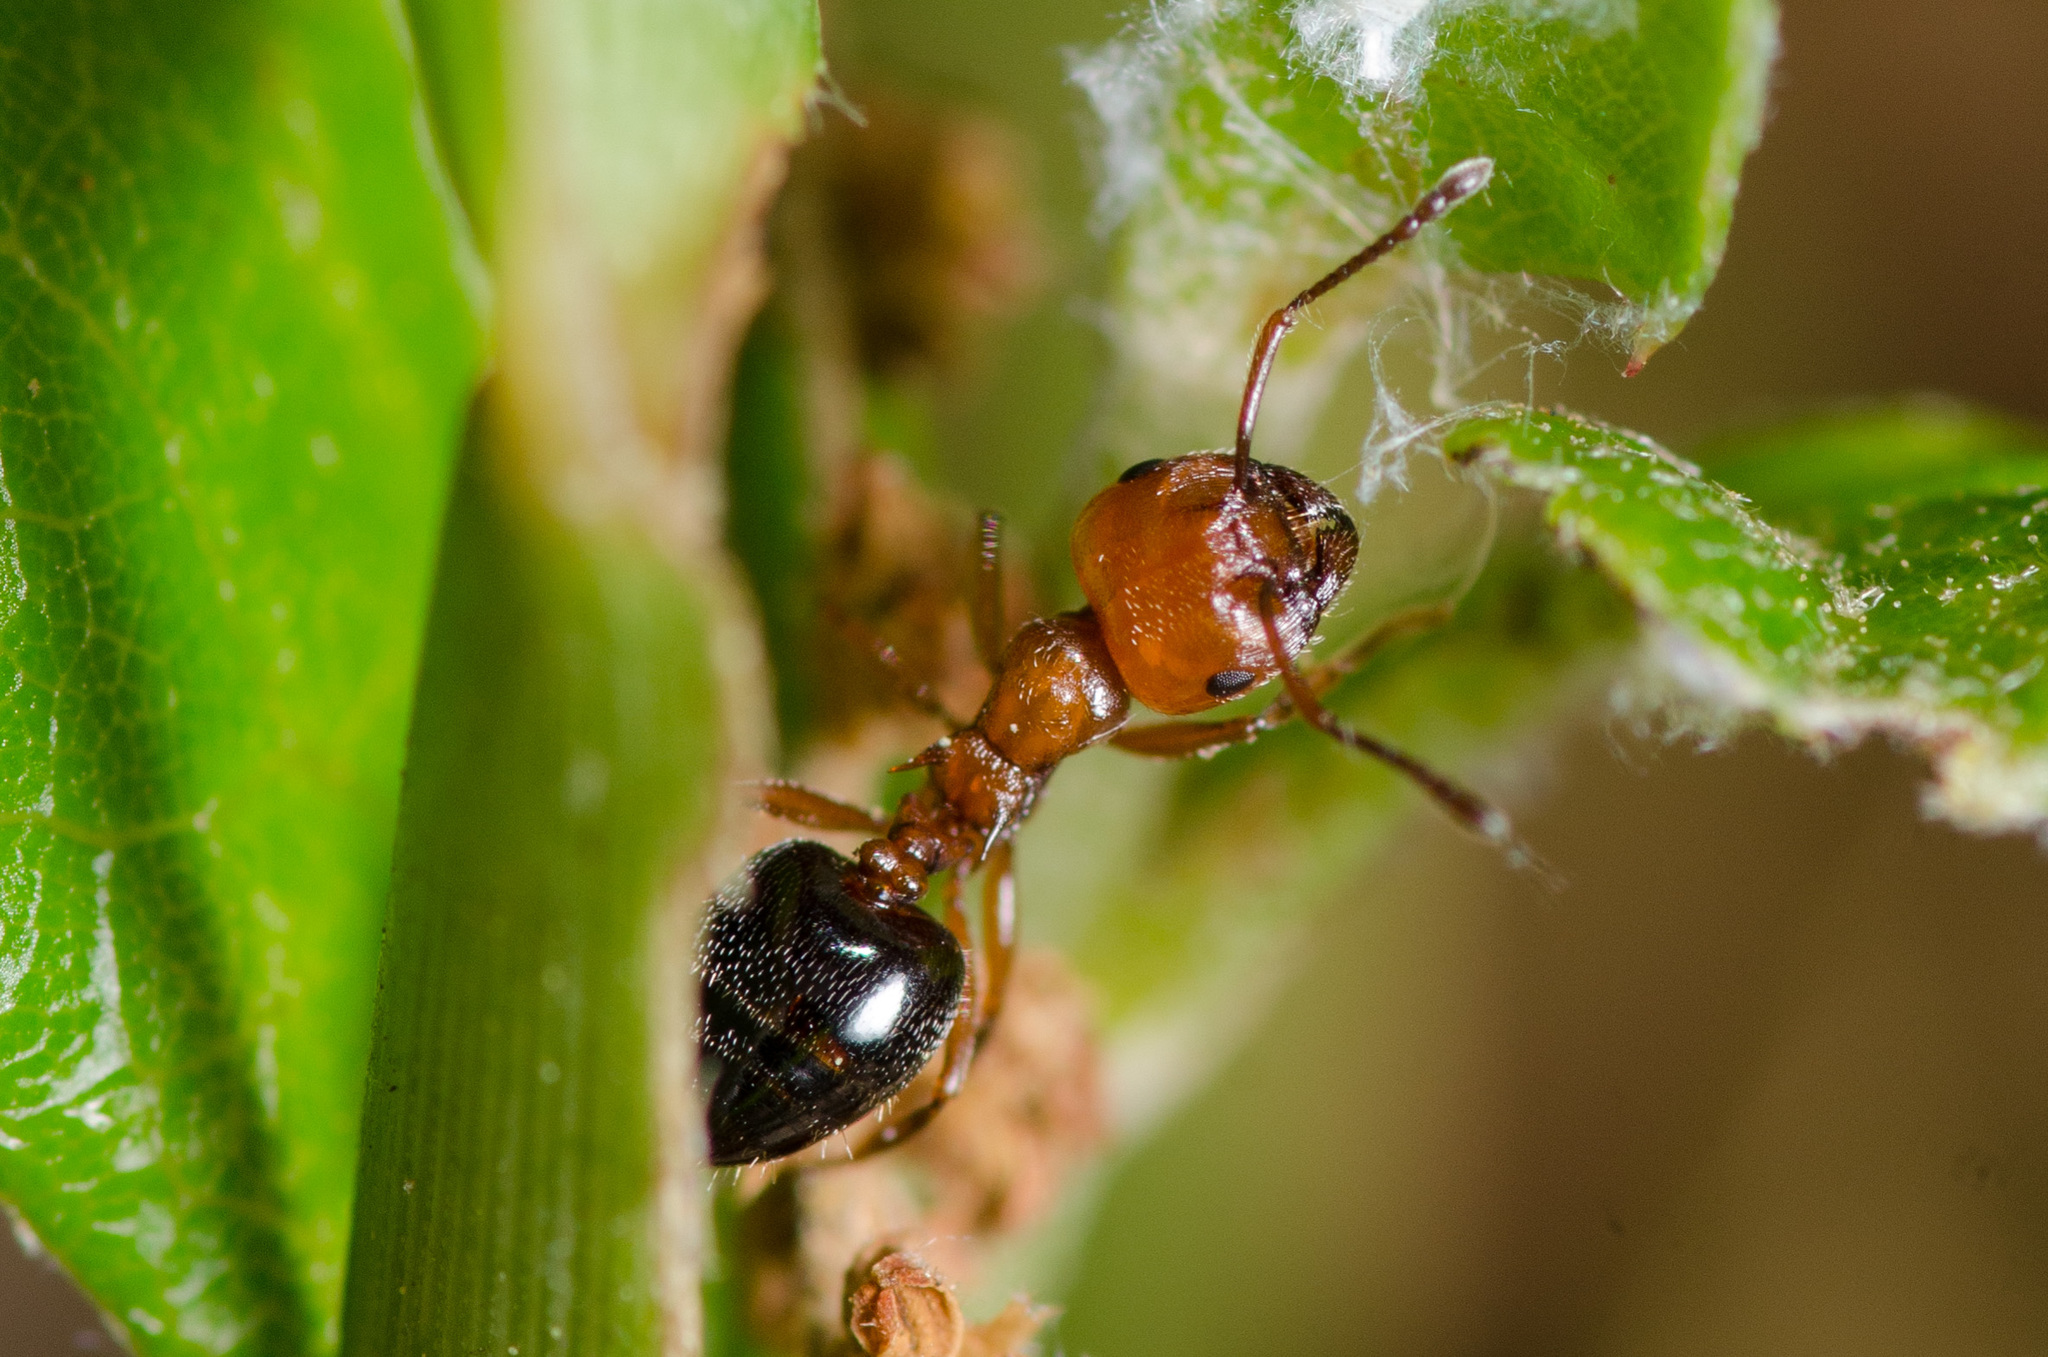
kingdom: Animalia
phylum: Arthropoda
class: Insecta
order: Hymenoptera
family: Formicidae
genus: Crematogaster
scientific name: Crematogaster laeviuscula
